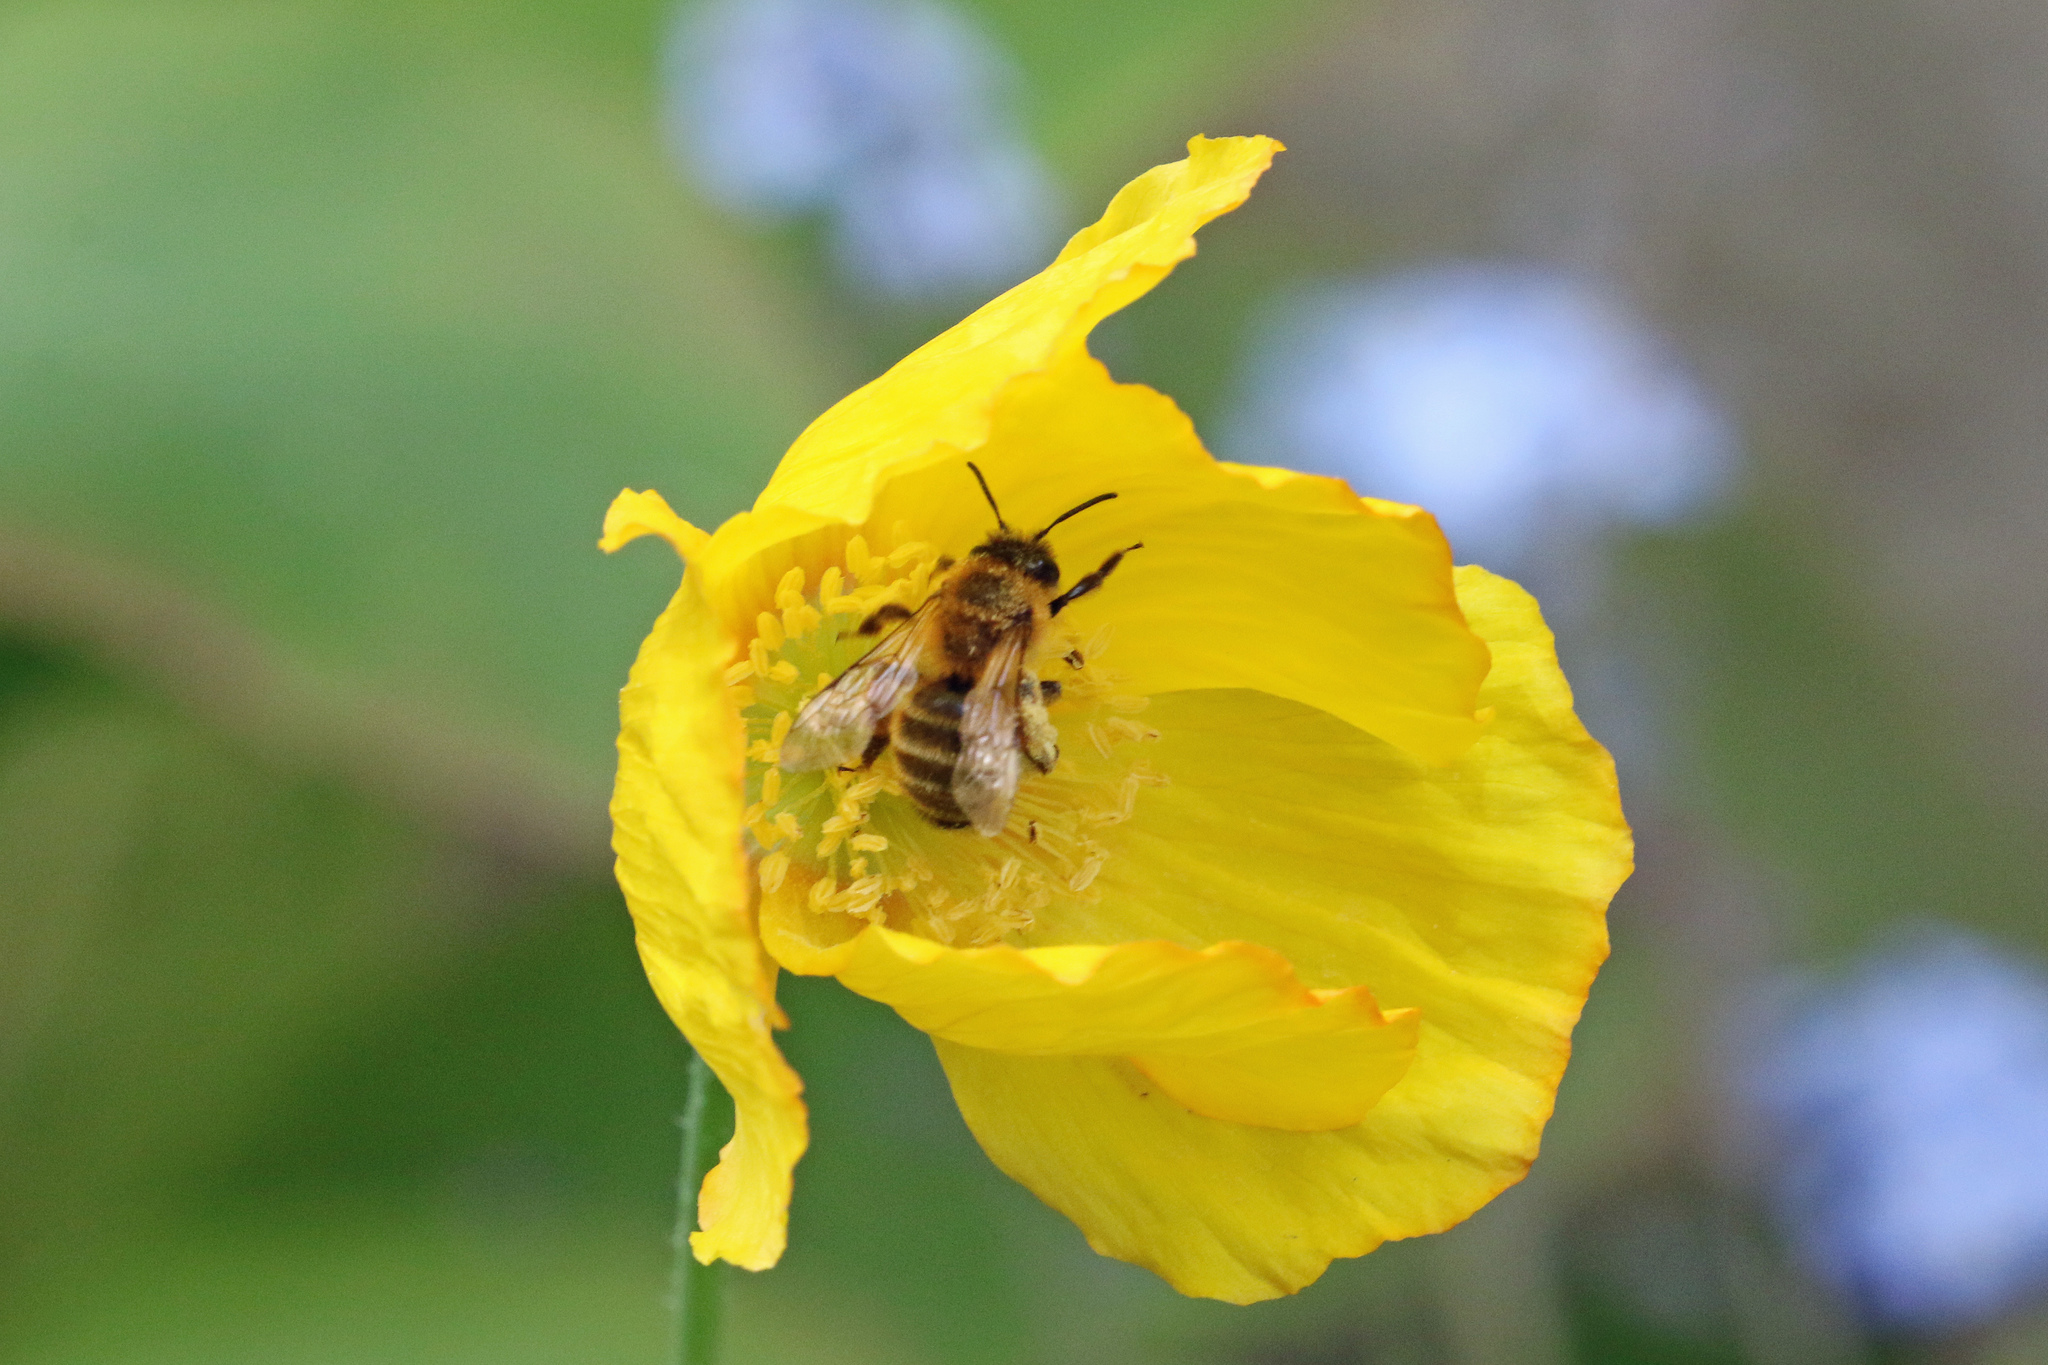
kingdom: Animalia
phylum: Arthropoda
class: Insecta
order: Hymenoptera
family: Andrenidae
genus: Andrena
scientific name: Andrena flavipes
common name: Yellow-legged mining bee
